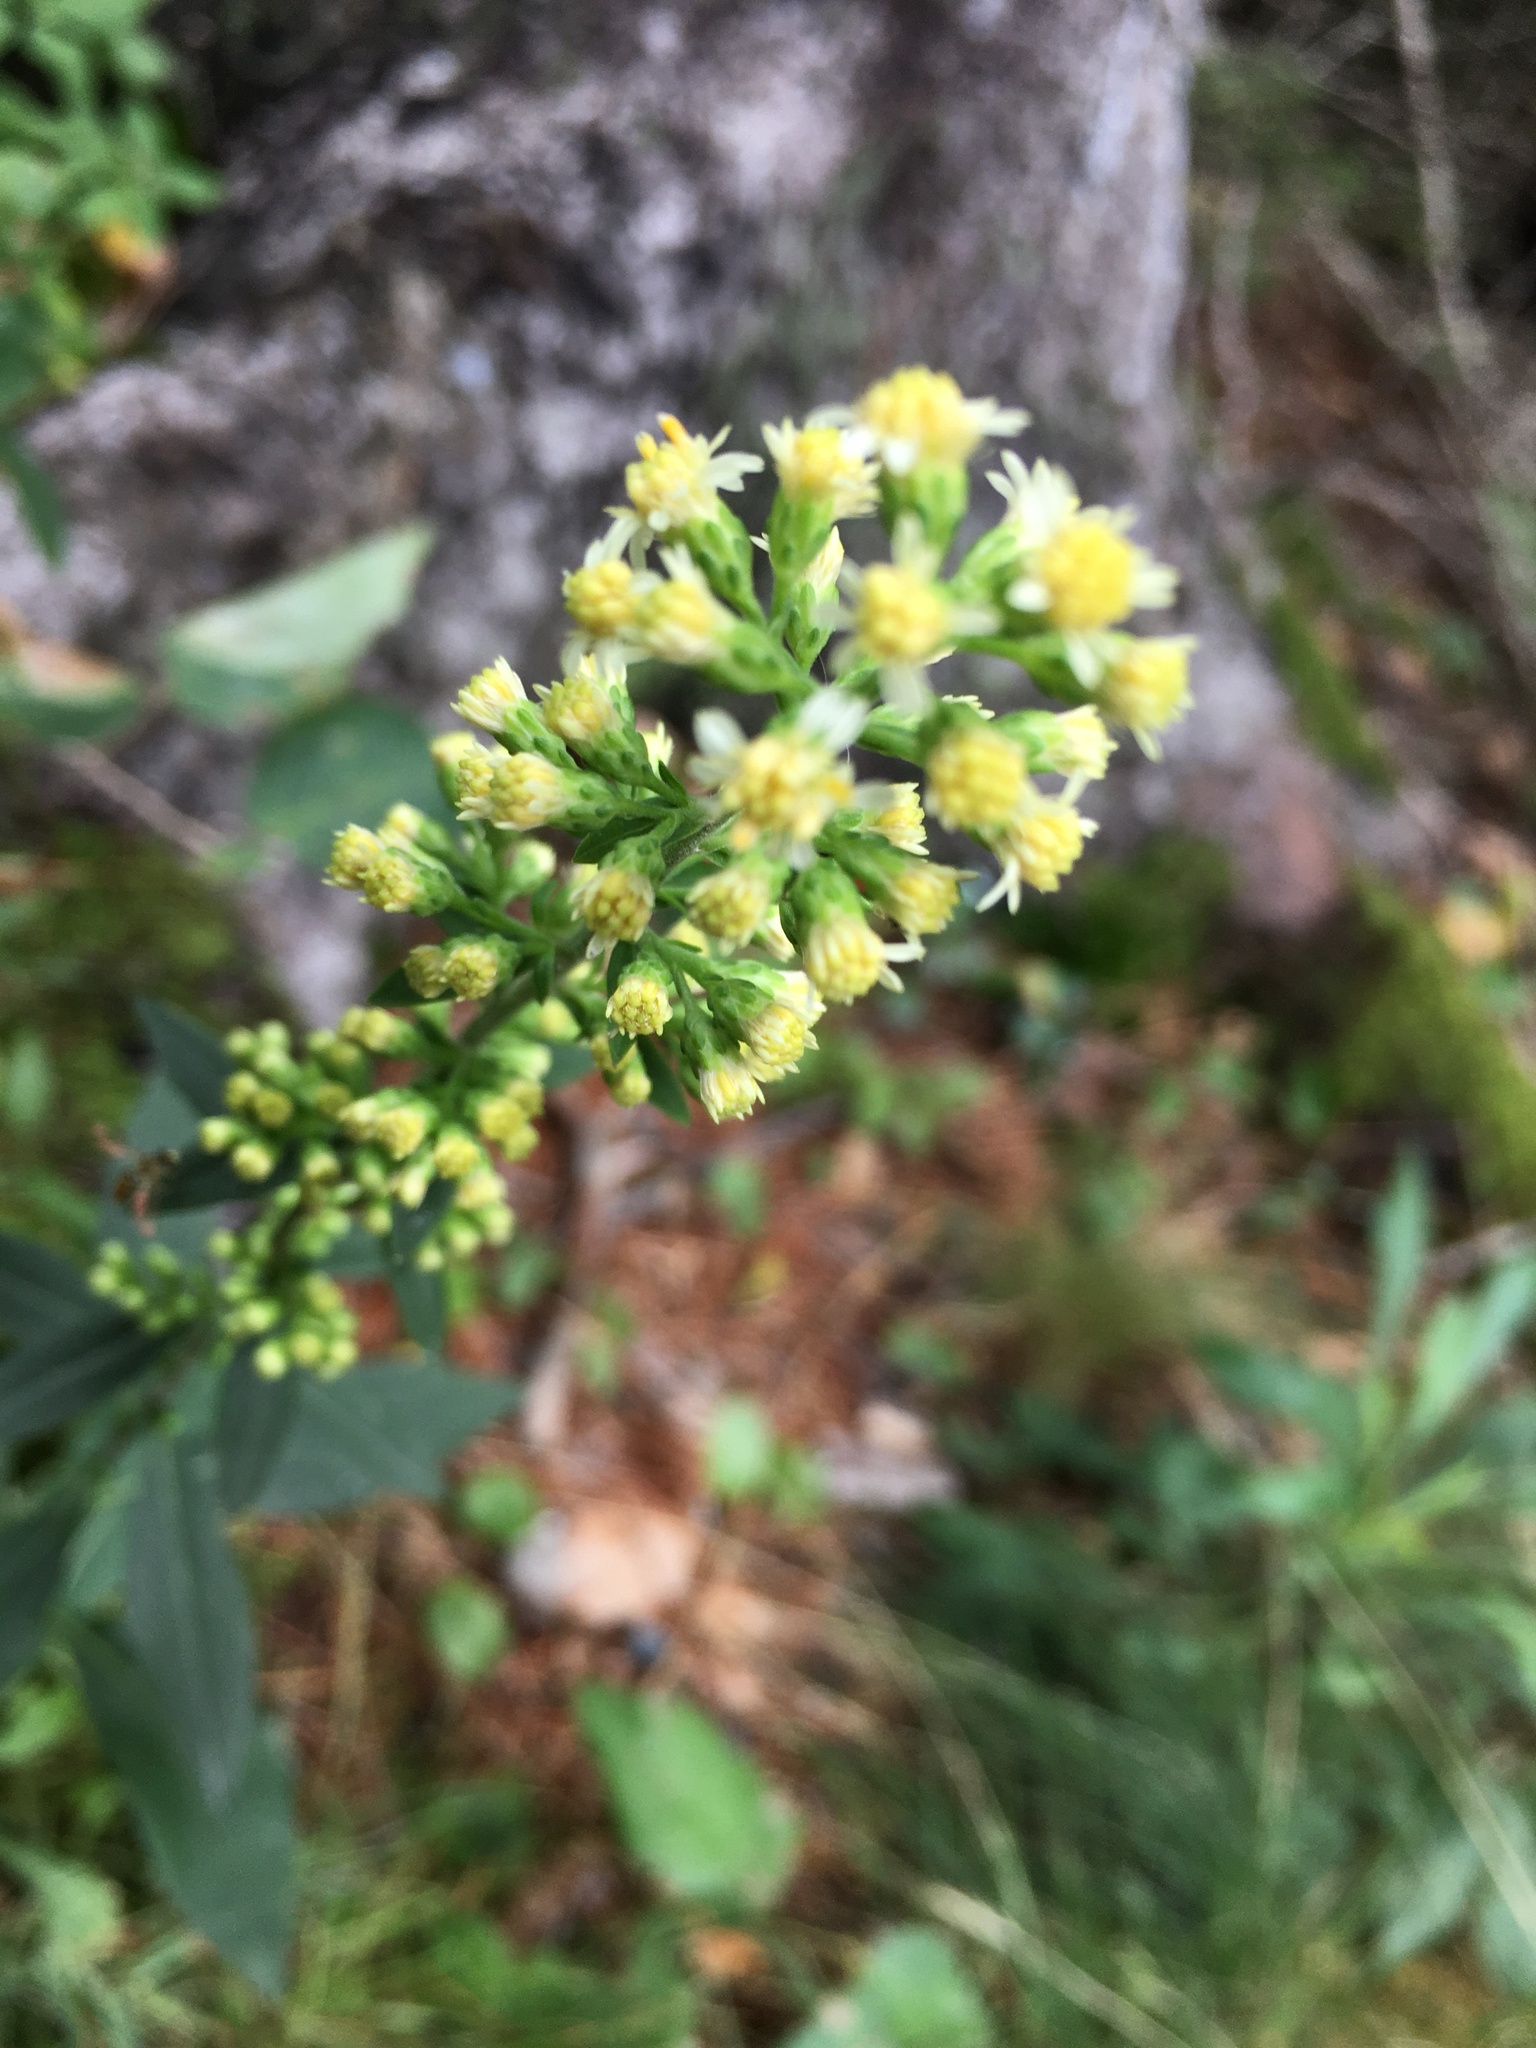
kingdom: Plantae
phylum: Tracheophyta
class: Magnoliopsida
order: Asterales
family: Asteraceae
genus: Solidago
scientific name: Solidago bicolor
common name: Silverrod
